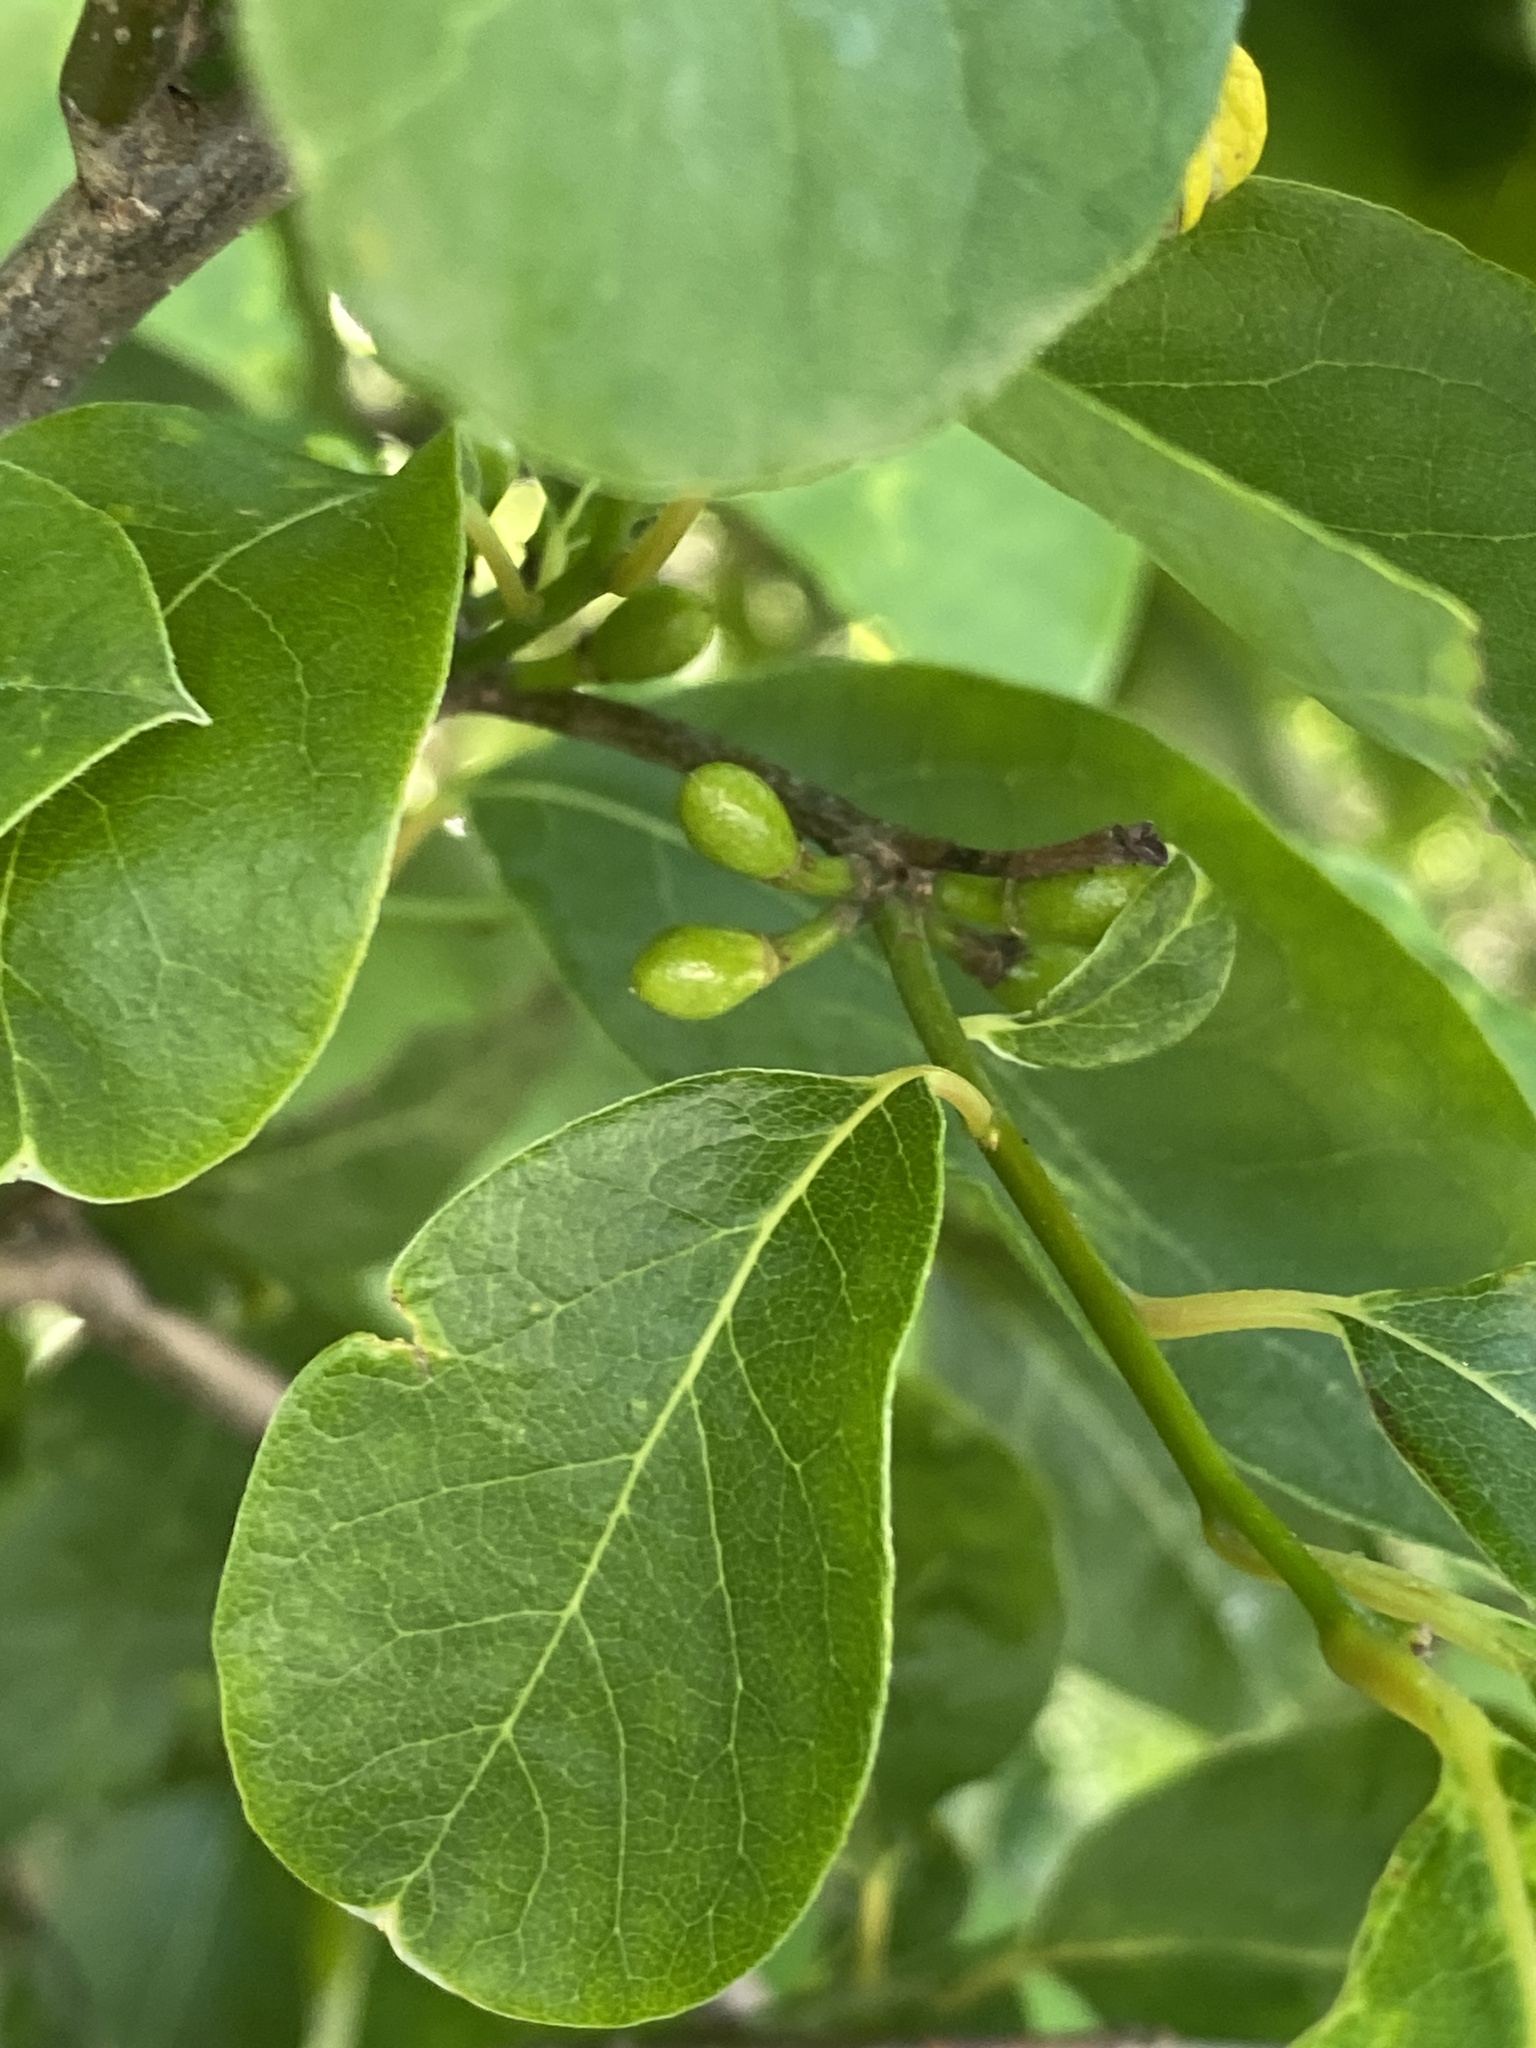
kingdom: Plantae
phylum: Tracheophyta
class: Magnoliopsida
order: Laurales
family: Lauraceae
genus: Lindera
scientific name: Lindera benzoin
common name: Spicebush
